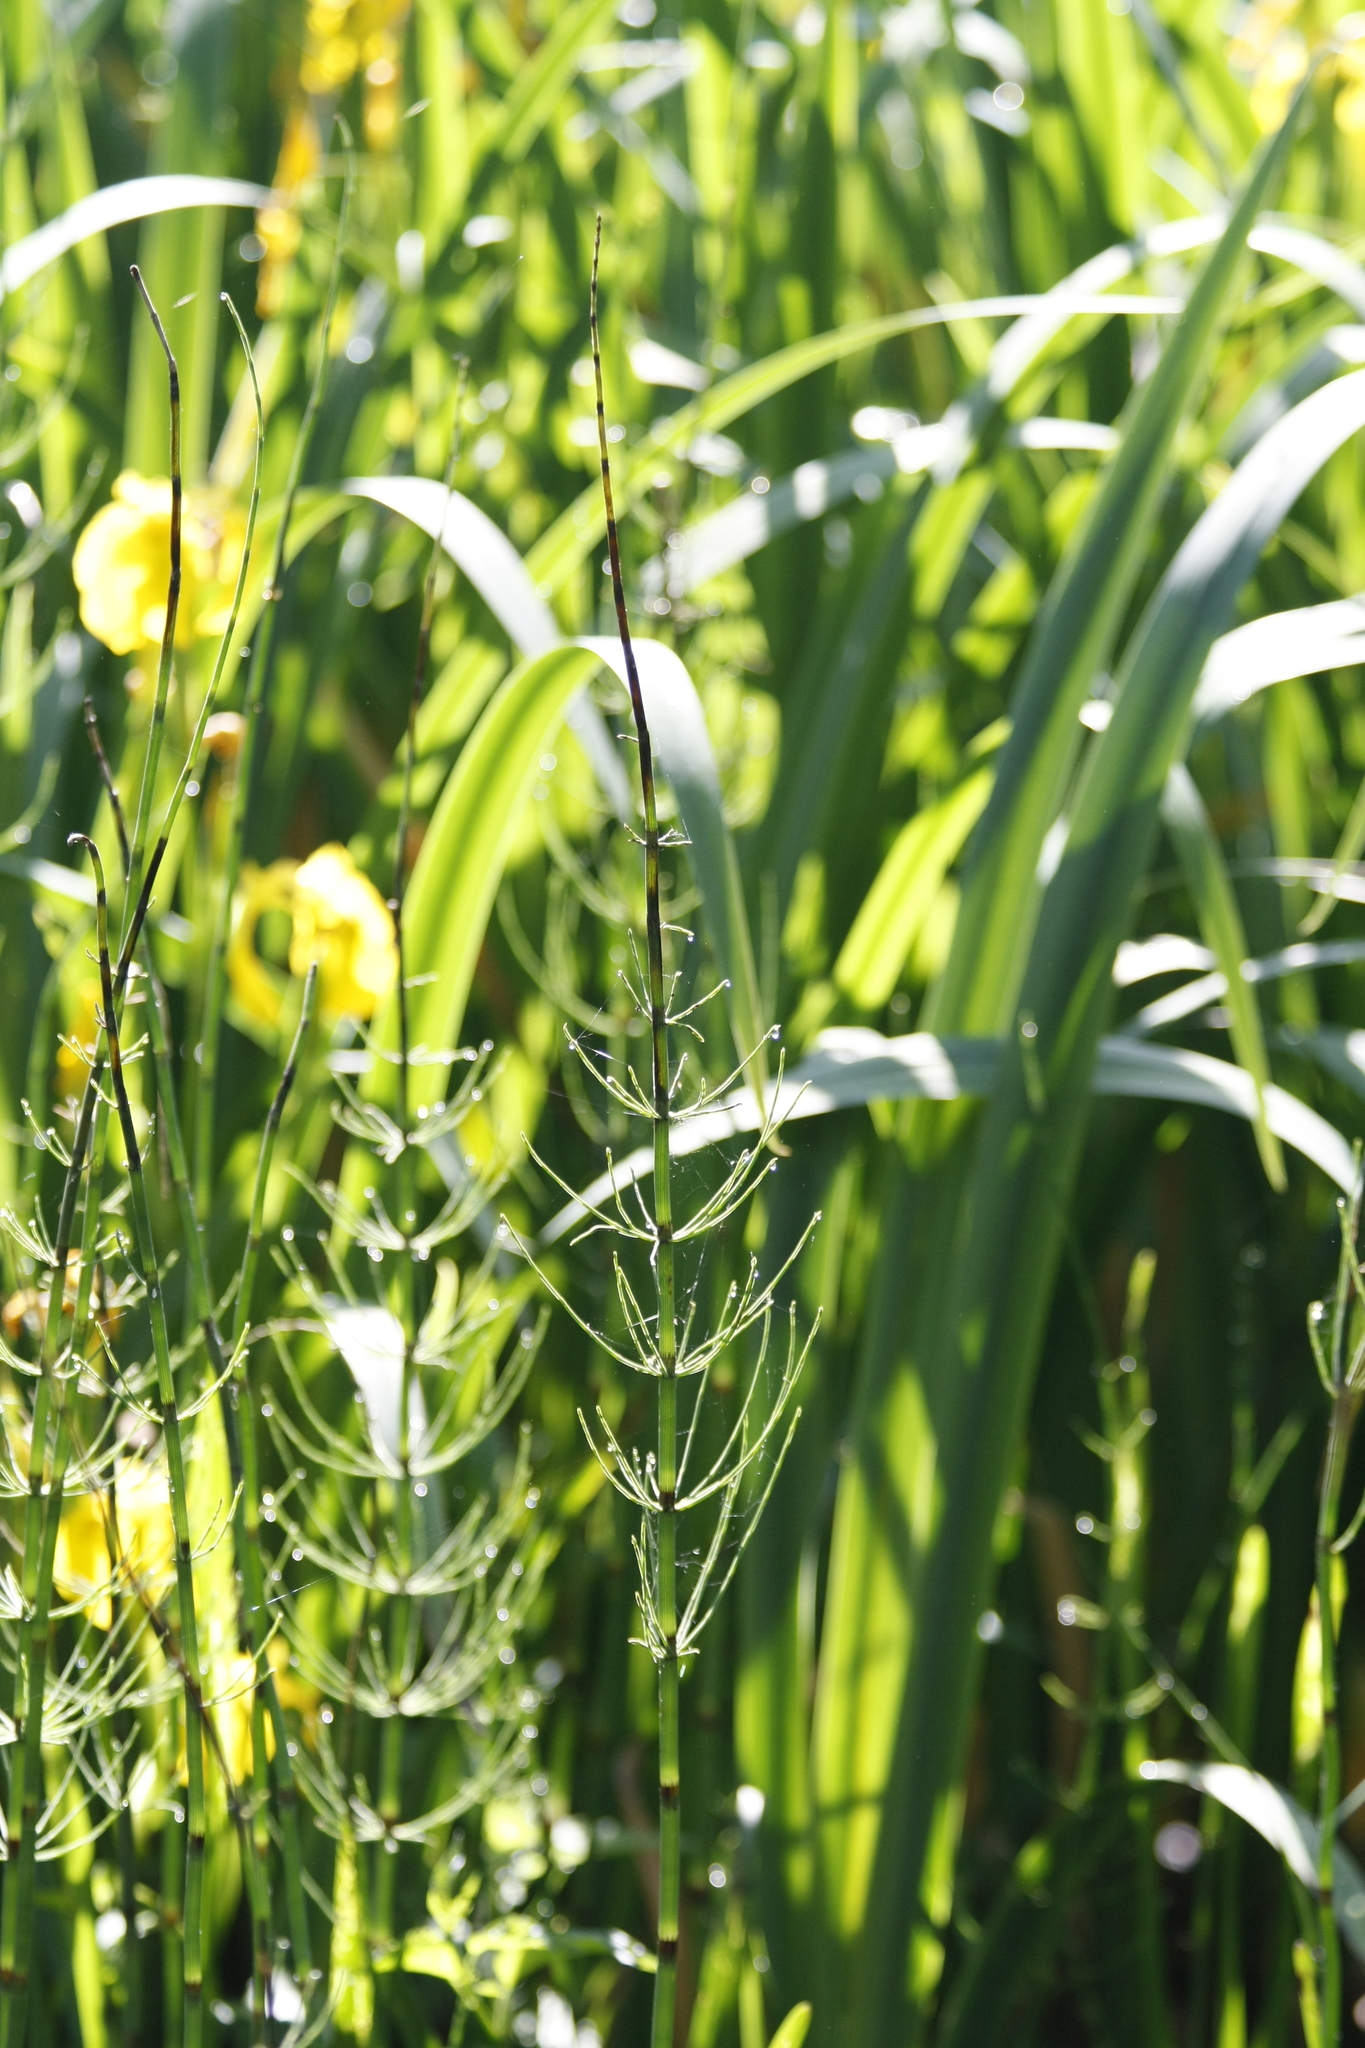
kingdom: Plantae
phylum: Tracheophyta
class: Polypodiopsida
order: Equisetales
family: Equisetaceae
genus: Equisetum
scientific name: Equisetum fluviatile
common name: Water horsetail
